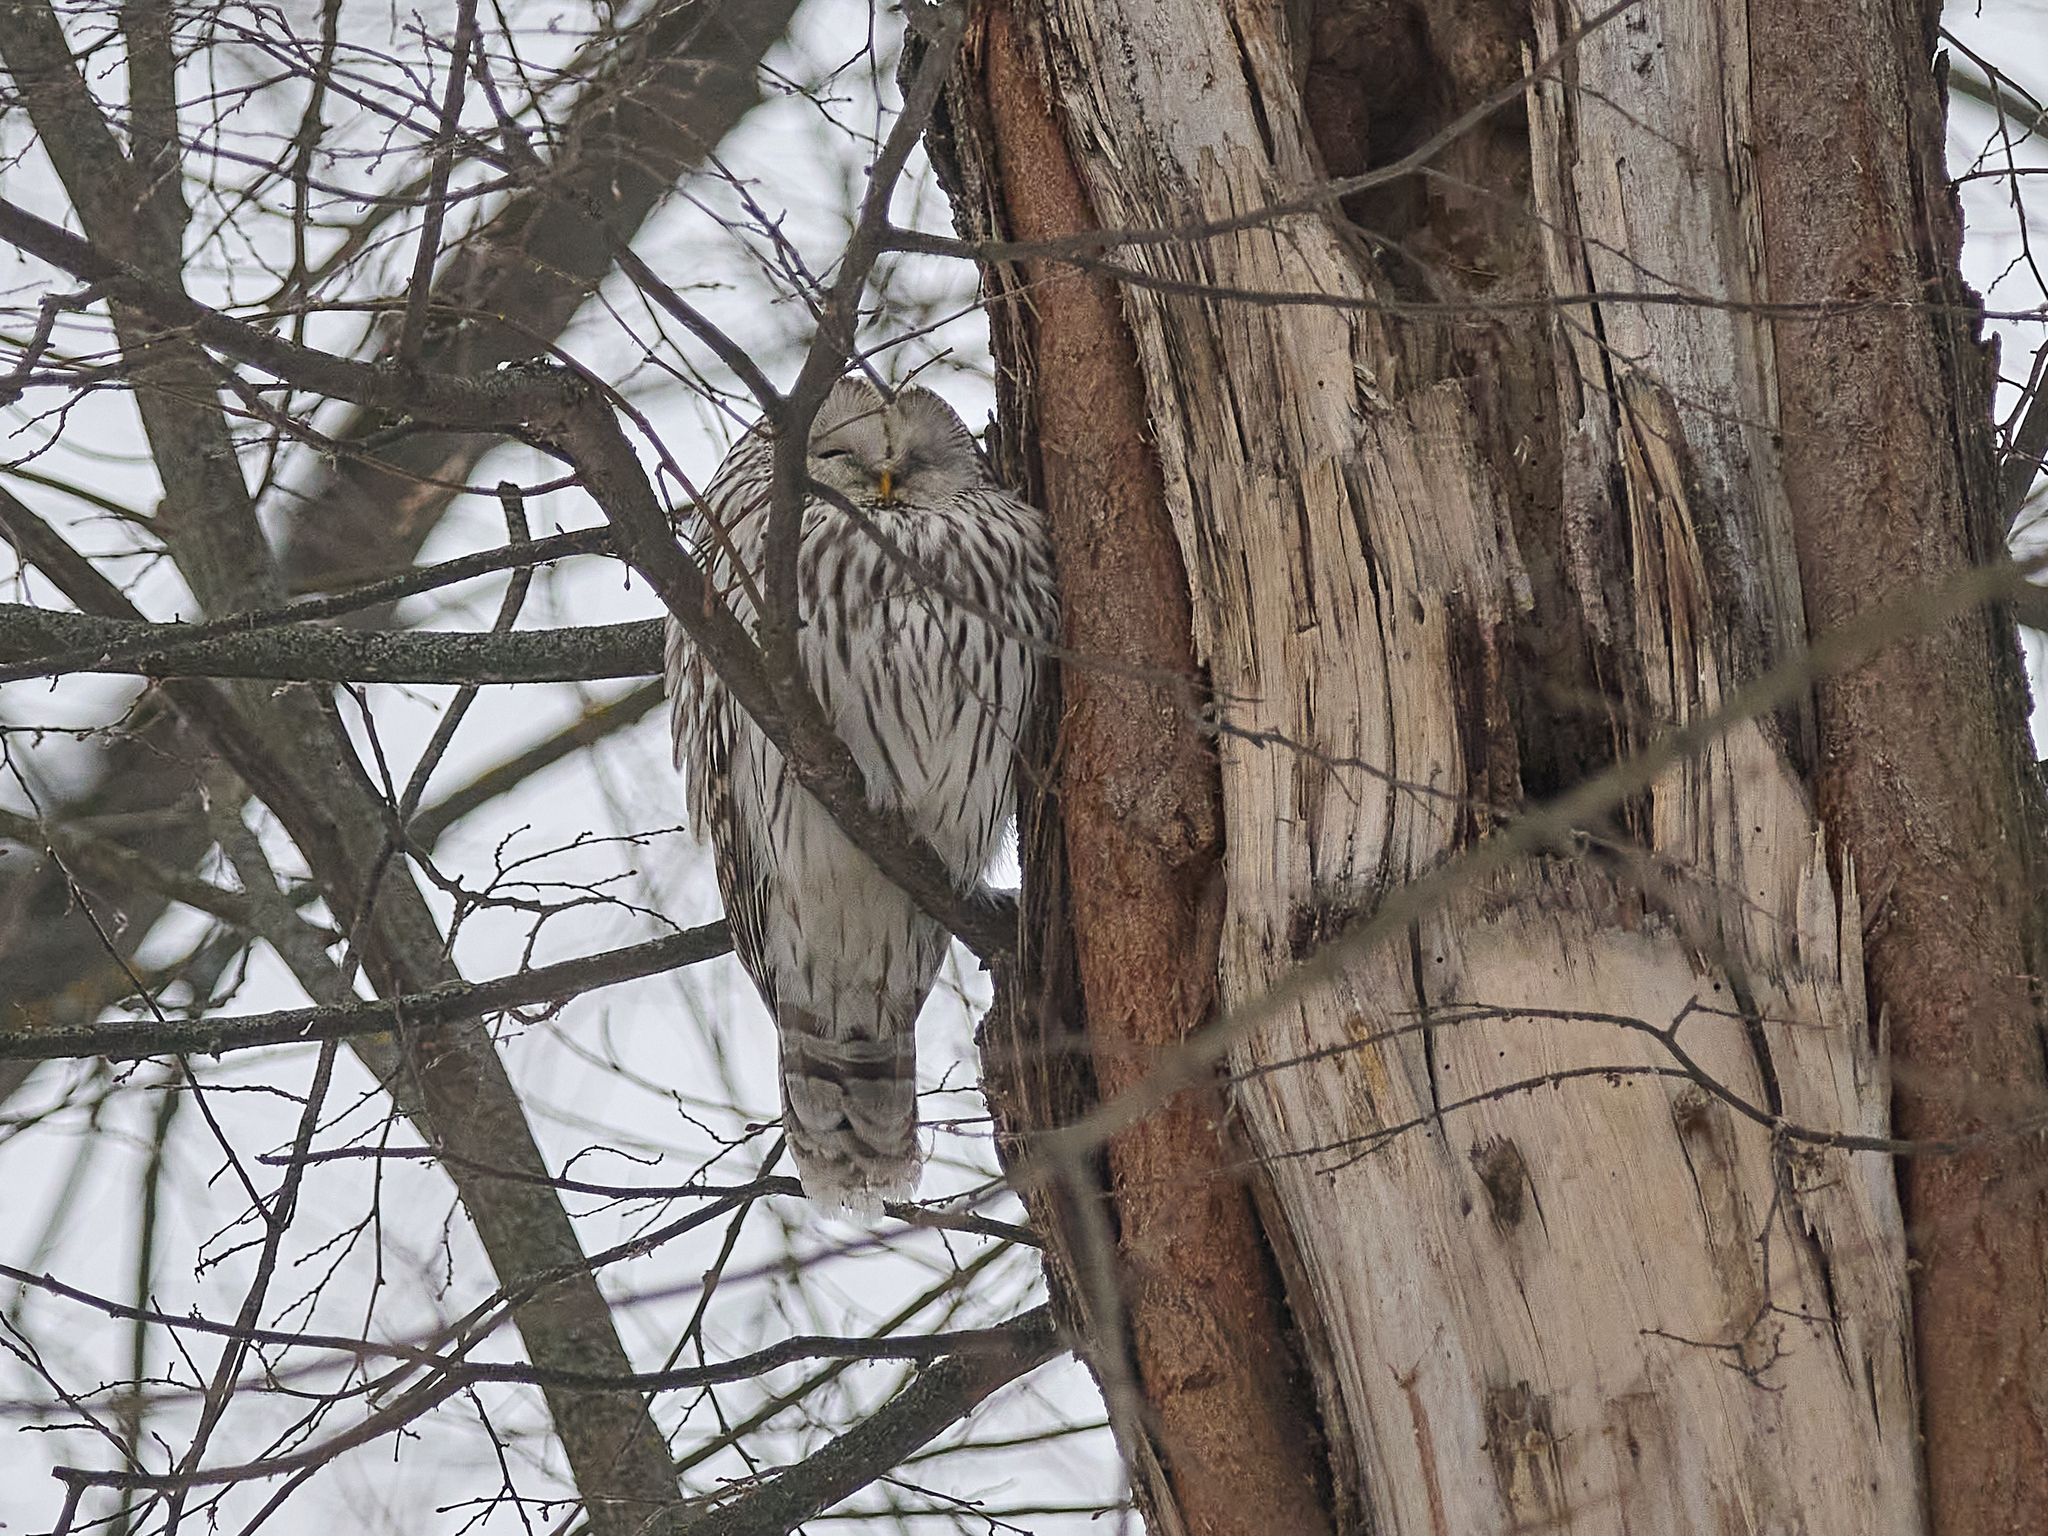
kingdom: Animalia
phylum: Chordata
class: Aves
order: Strigiformes
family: Strigidae
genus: Strix
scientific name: Strix uralensis
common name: Ural owl
